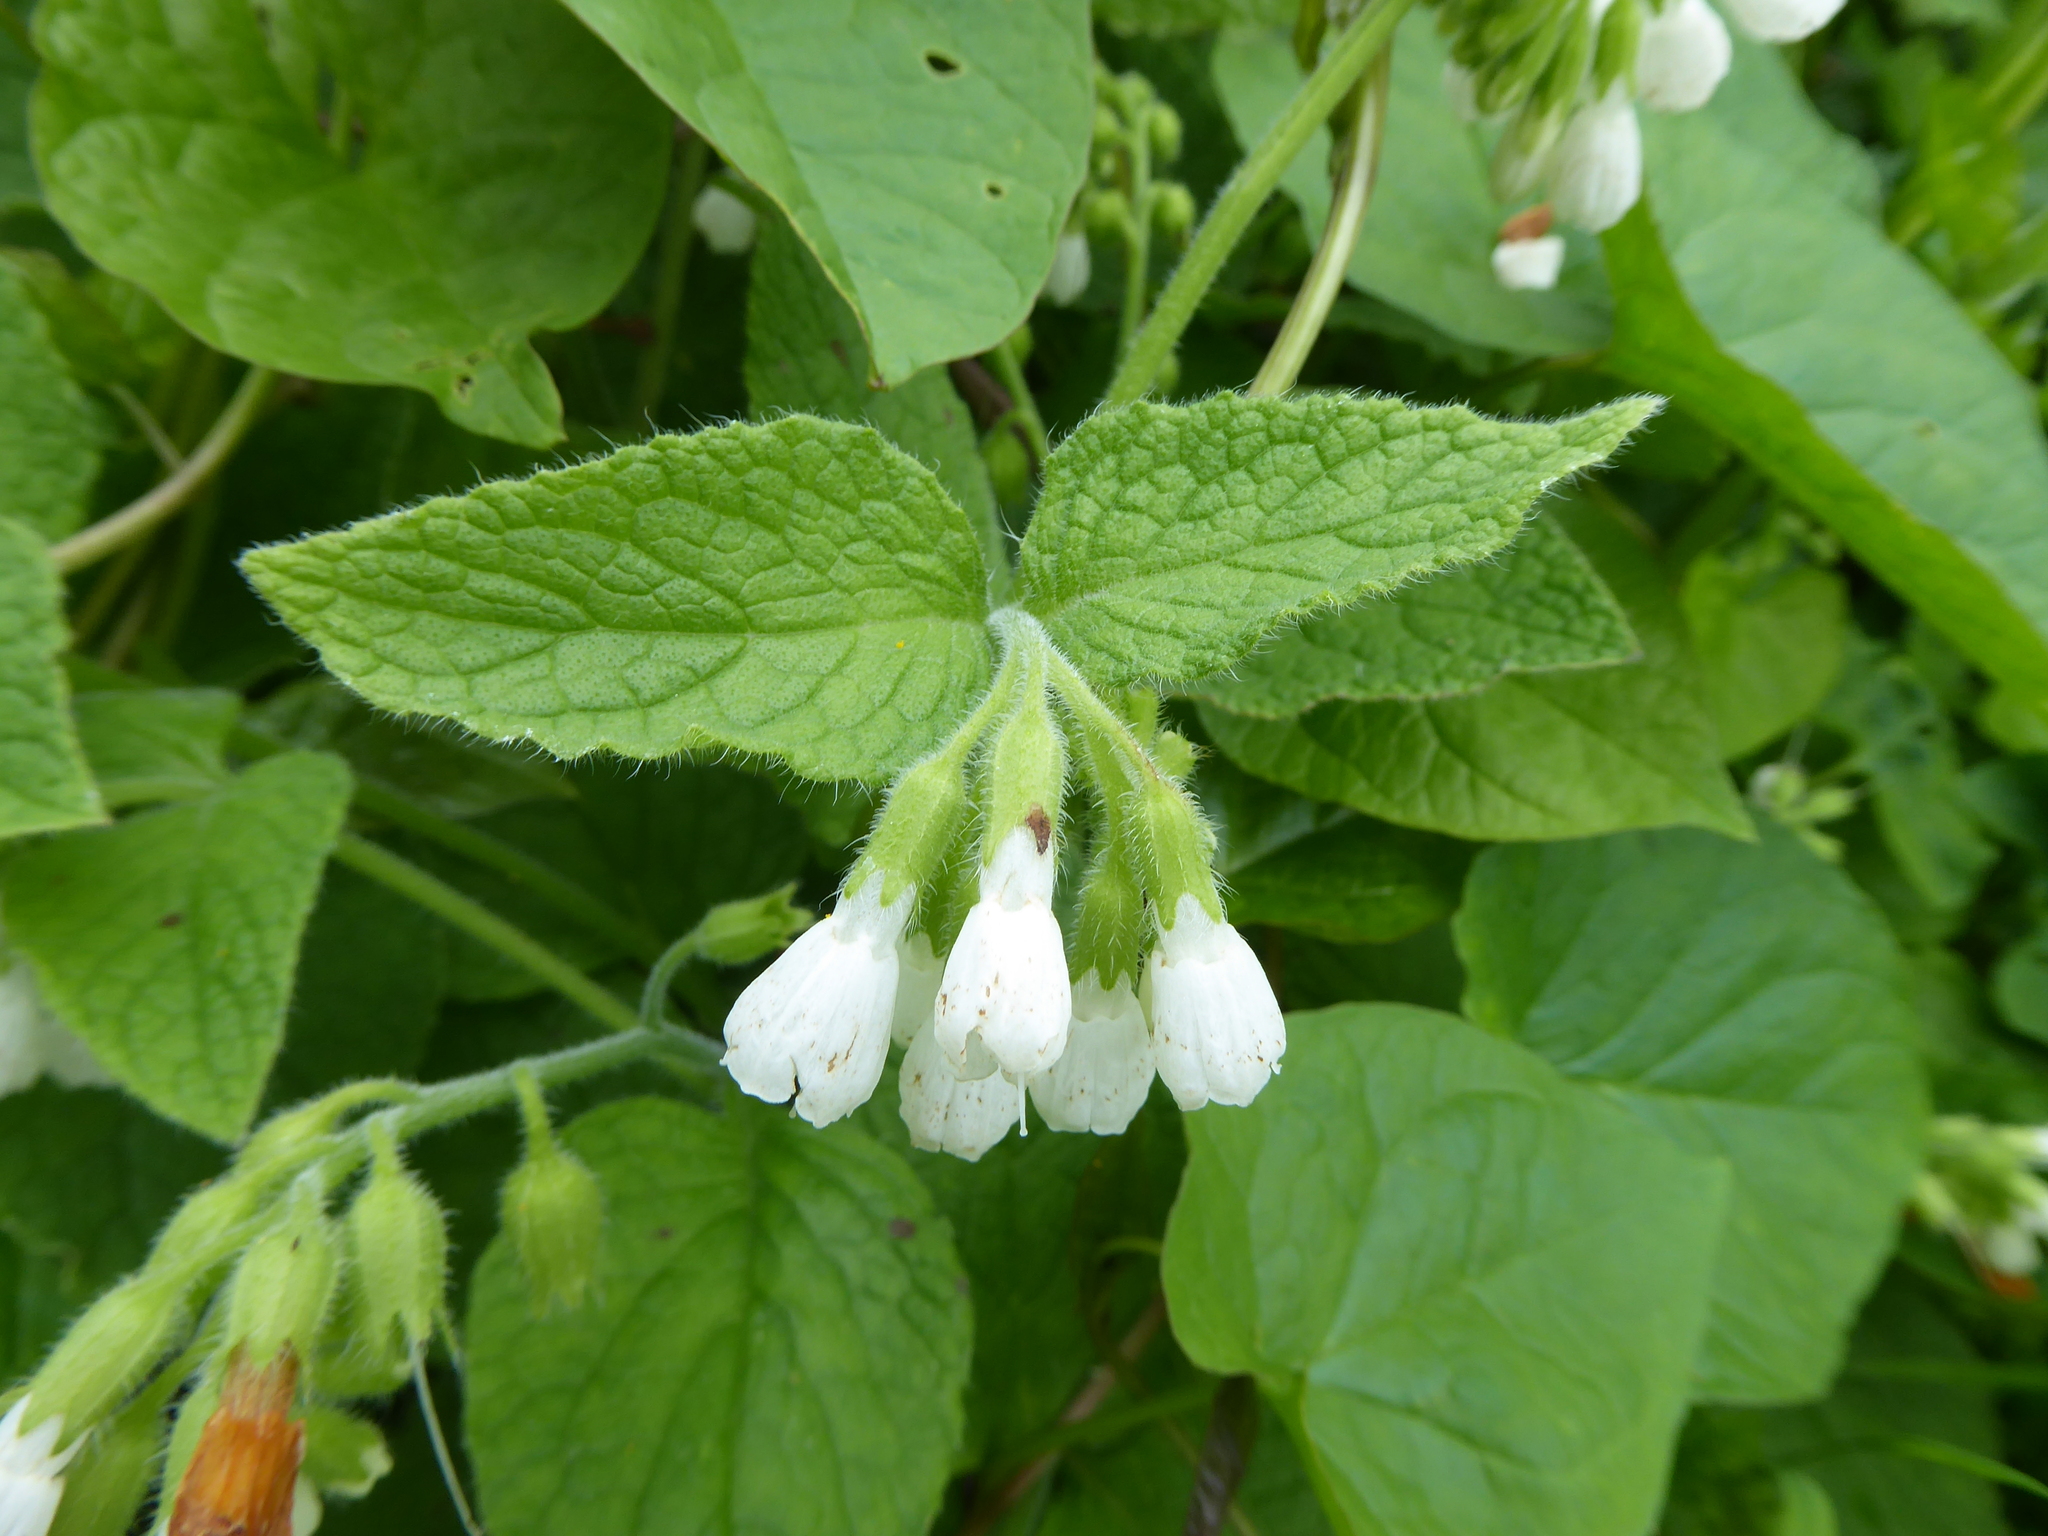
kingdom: Plantae
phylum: Tracheophyta
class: Magnoliopsida
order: Boraginales
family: Boraginaceae
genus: Symphytum
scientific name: Symphytum orientale
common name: White comfrey
